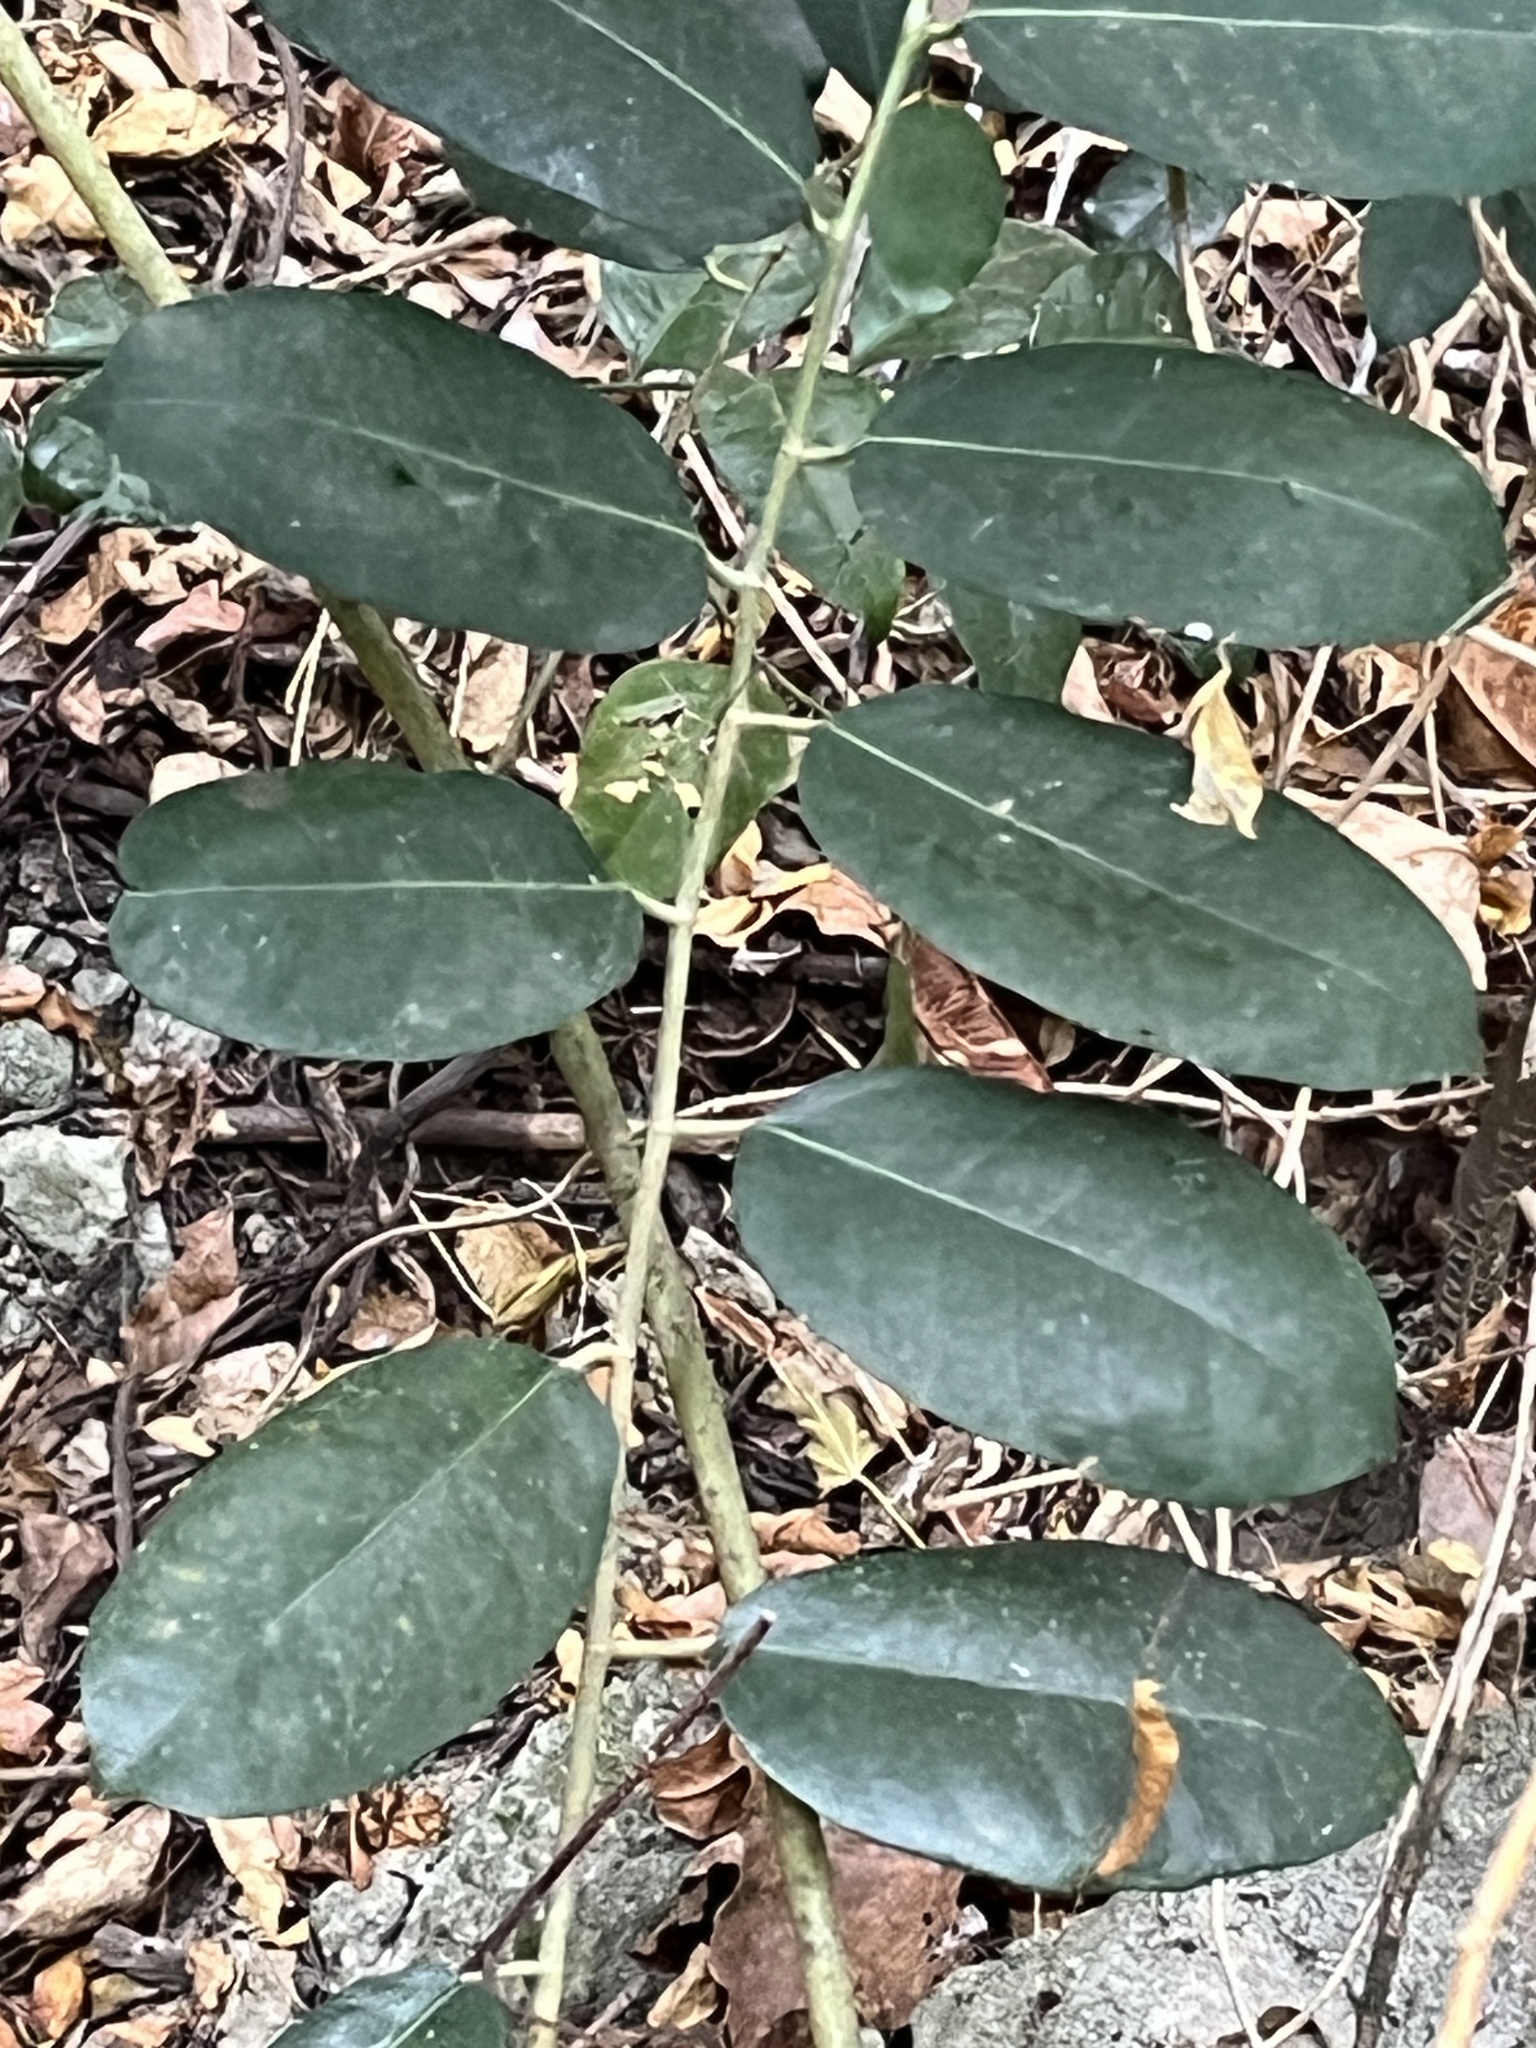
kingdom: Plantae
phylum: Tracheophyta
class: Magnoliopsida
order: Ericales
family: Ebenaceae
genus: Diospyros
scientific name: Diospyros blancoi
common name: Mabola-tree
